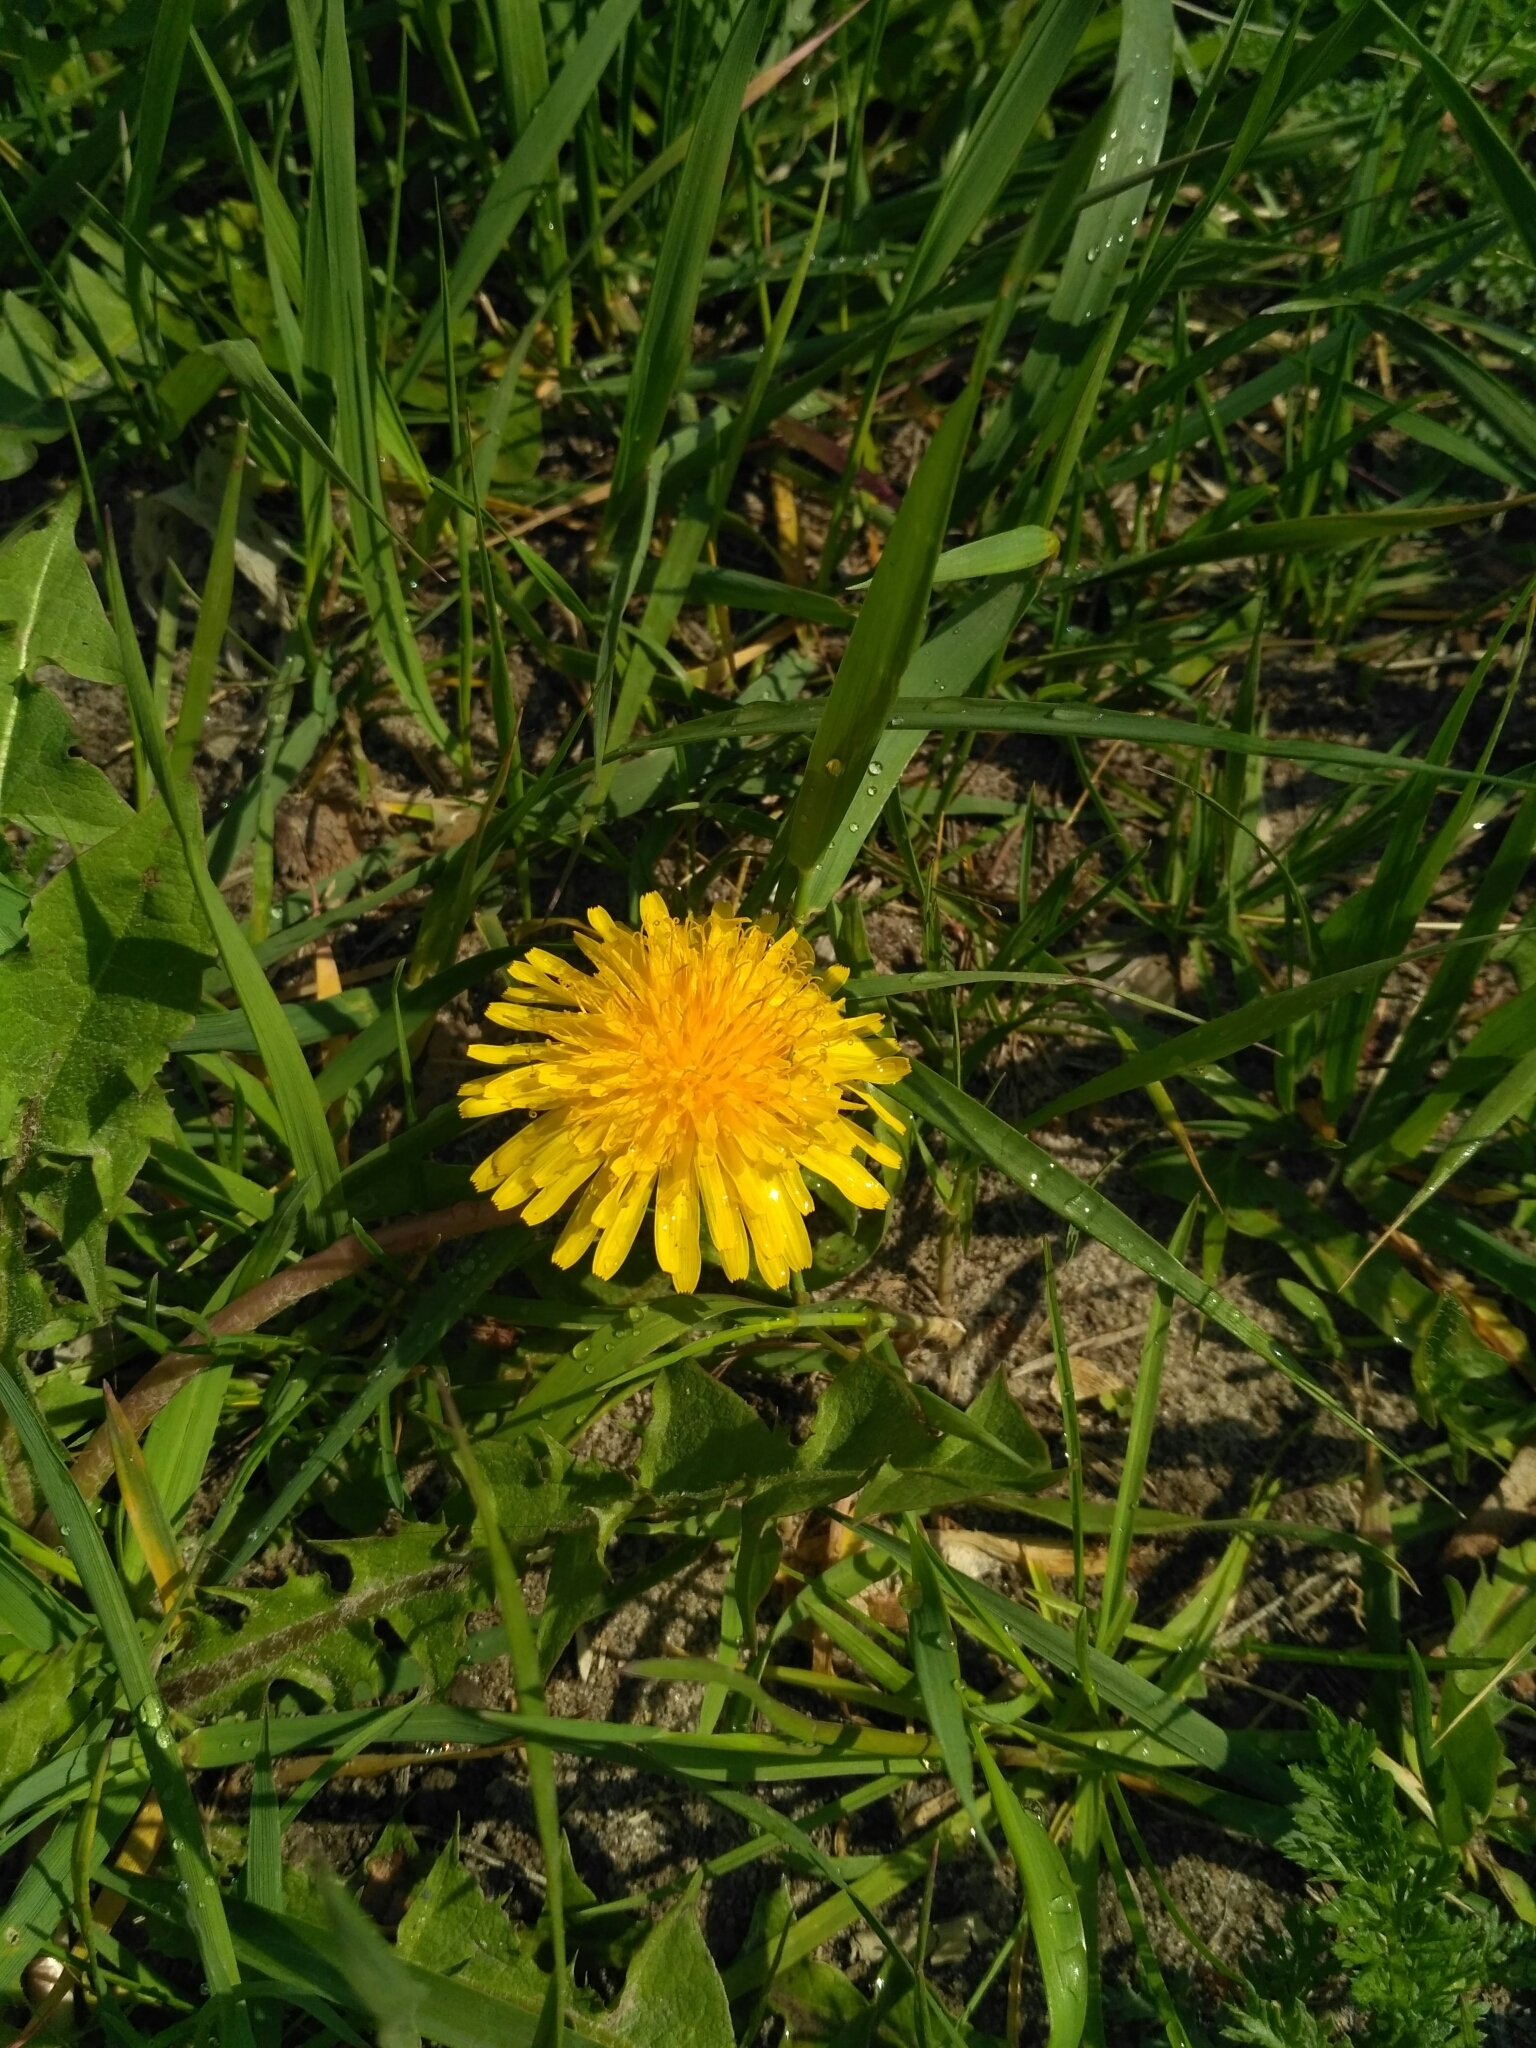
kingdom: Plantae
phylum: Tracheophyta
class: Magnoliopsida
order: Asterales
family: Asteraceae
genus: Taraxacum
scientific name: Taraxacum officinale
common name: Common dandelion
